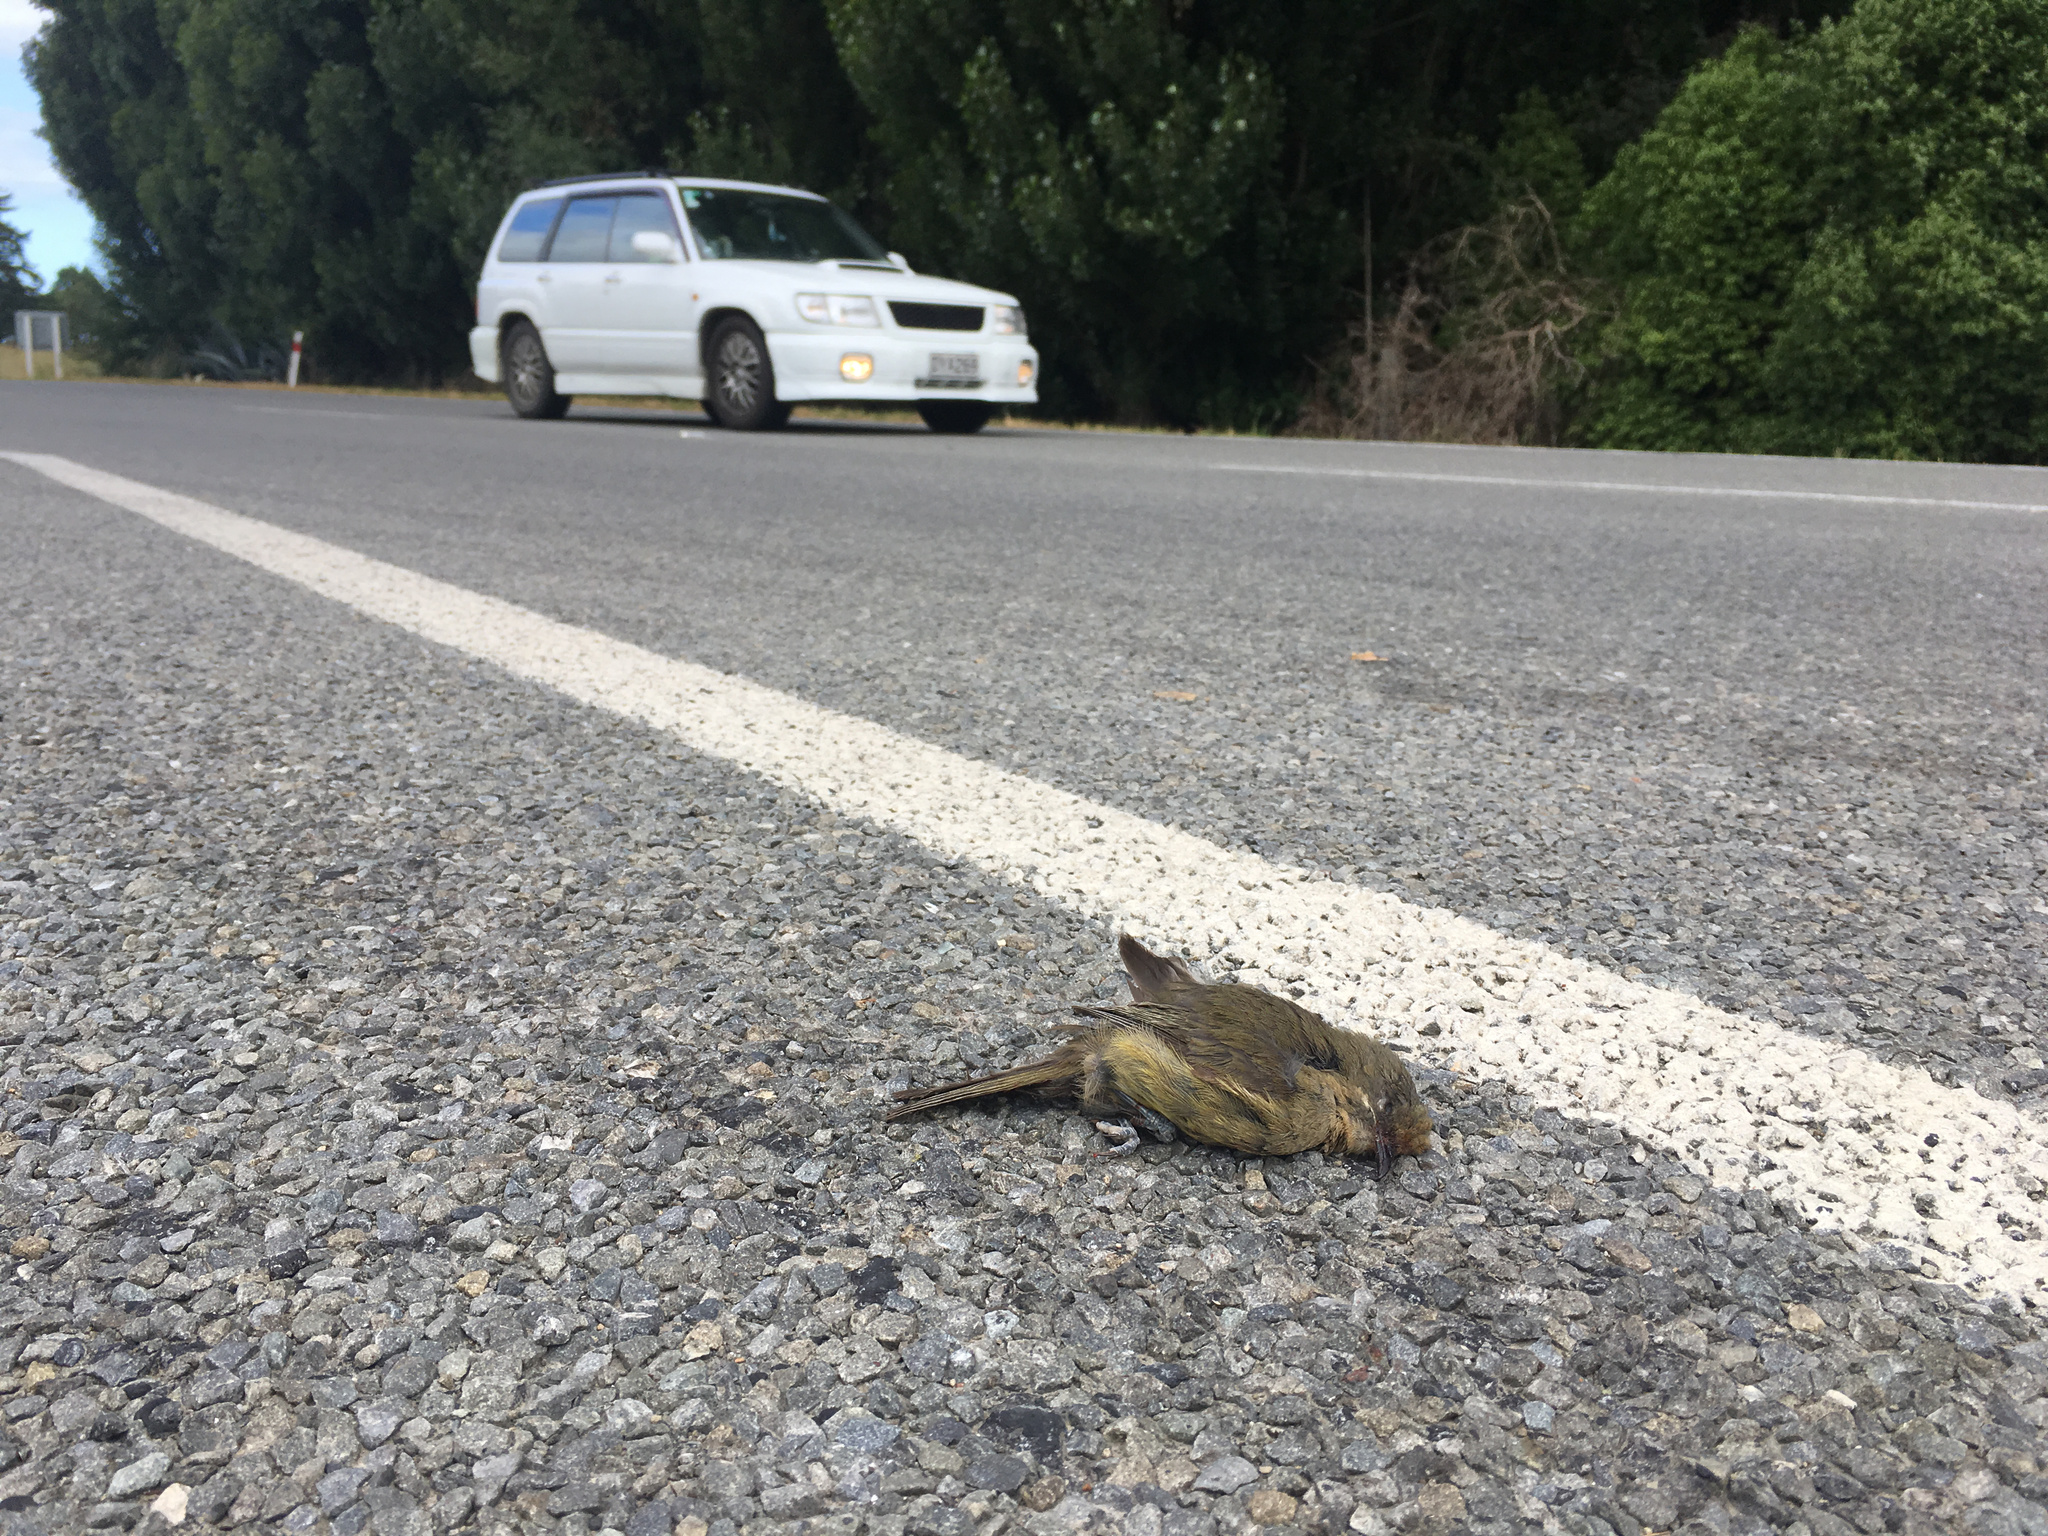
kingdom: Animalia
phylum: Chordata
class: Aves
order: Passeriformes
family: Meliphagidae
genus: Anthornis
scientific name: Anthornis melanura
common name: New zealand bellbird
